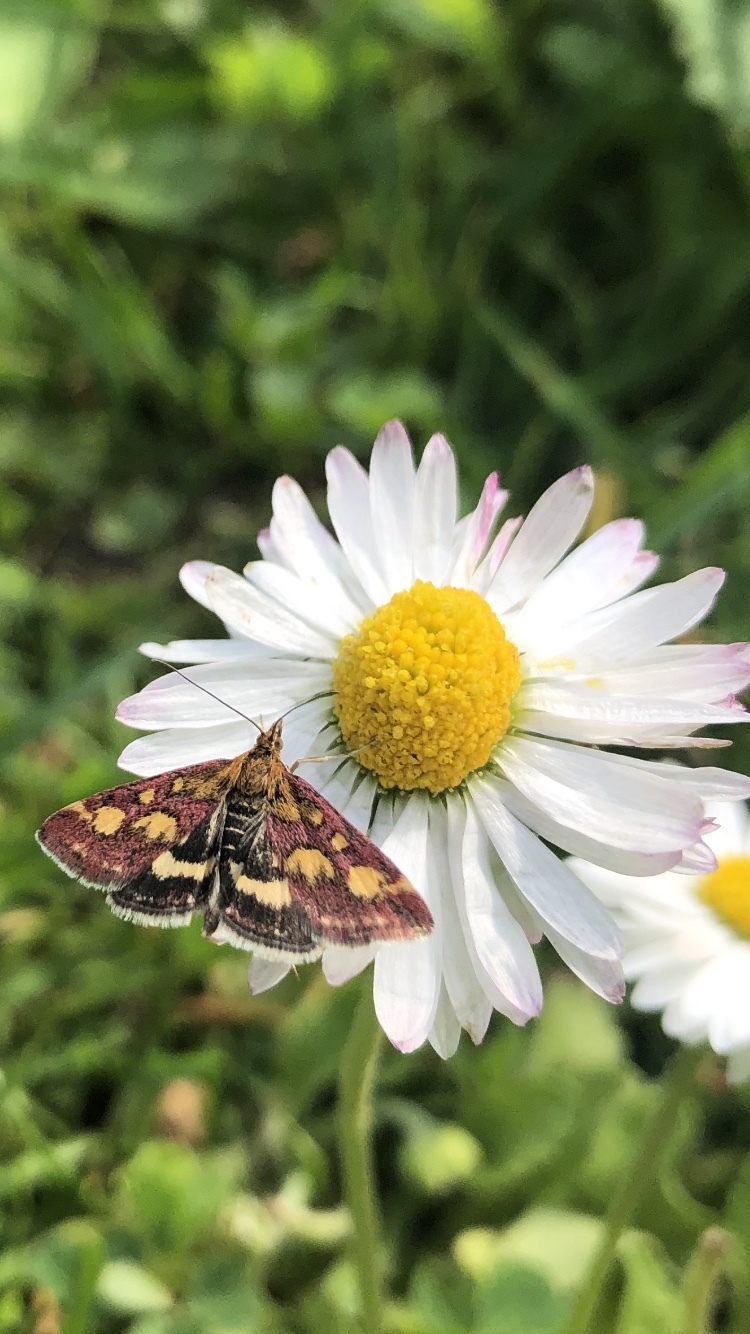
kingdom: Animalia
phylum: Arthropoda
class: Insecta
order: Lepidoptera
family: Crambidae
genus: Pyrausta
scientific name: Pyrausta purpuralis
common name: Common purple & gold
